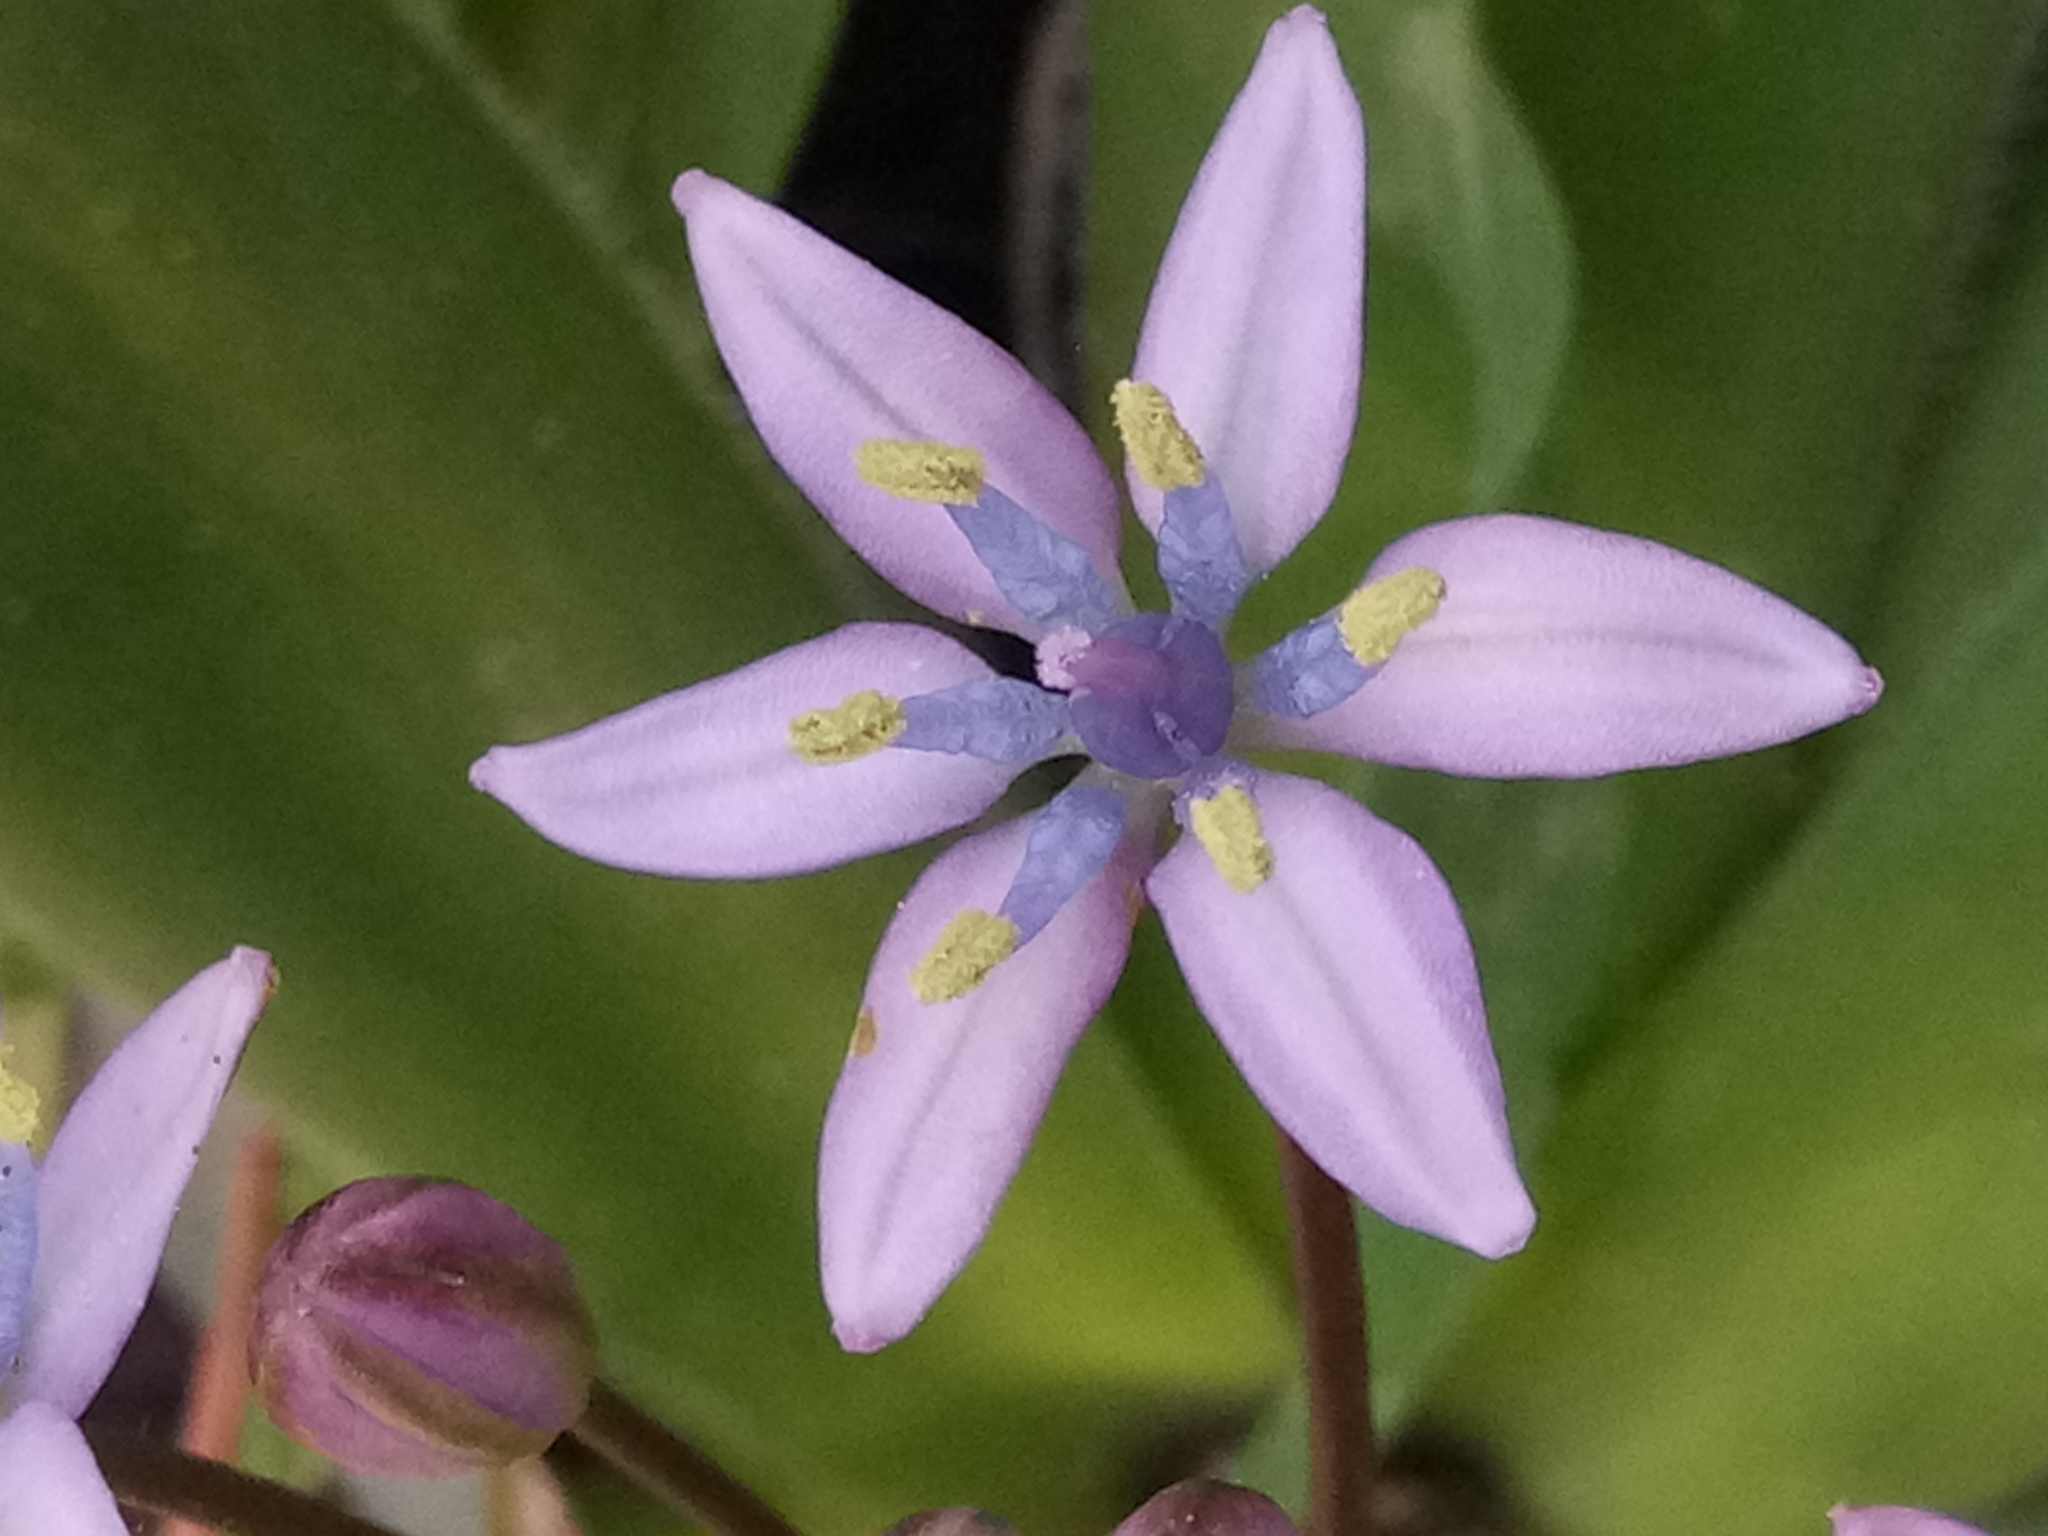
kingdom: Plantae
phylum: Tracheophyta
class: Liliopsida
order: Asparagales
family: Asparagaceae
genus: Scilla
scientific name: Scilla peruviana
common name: Portuguese squill
